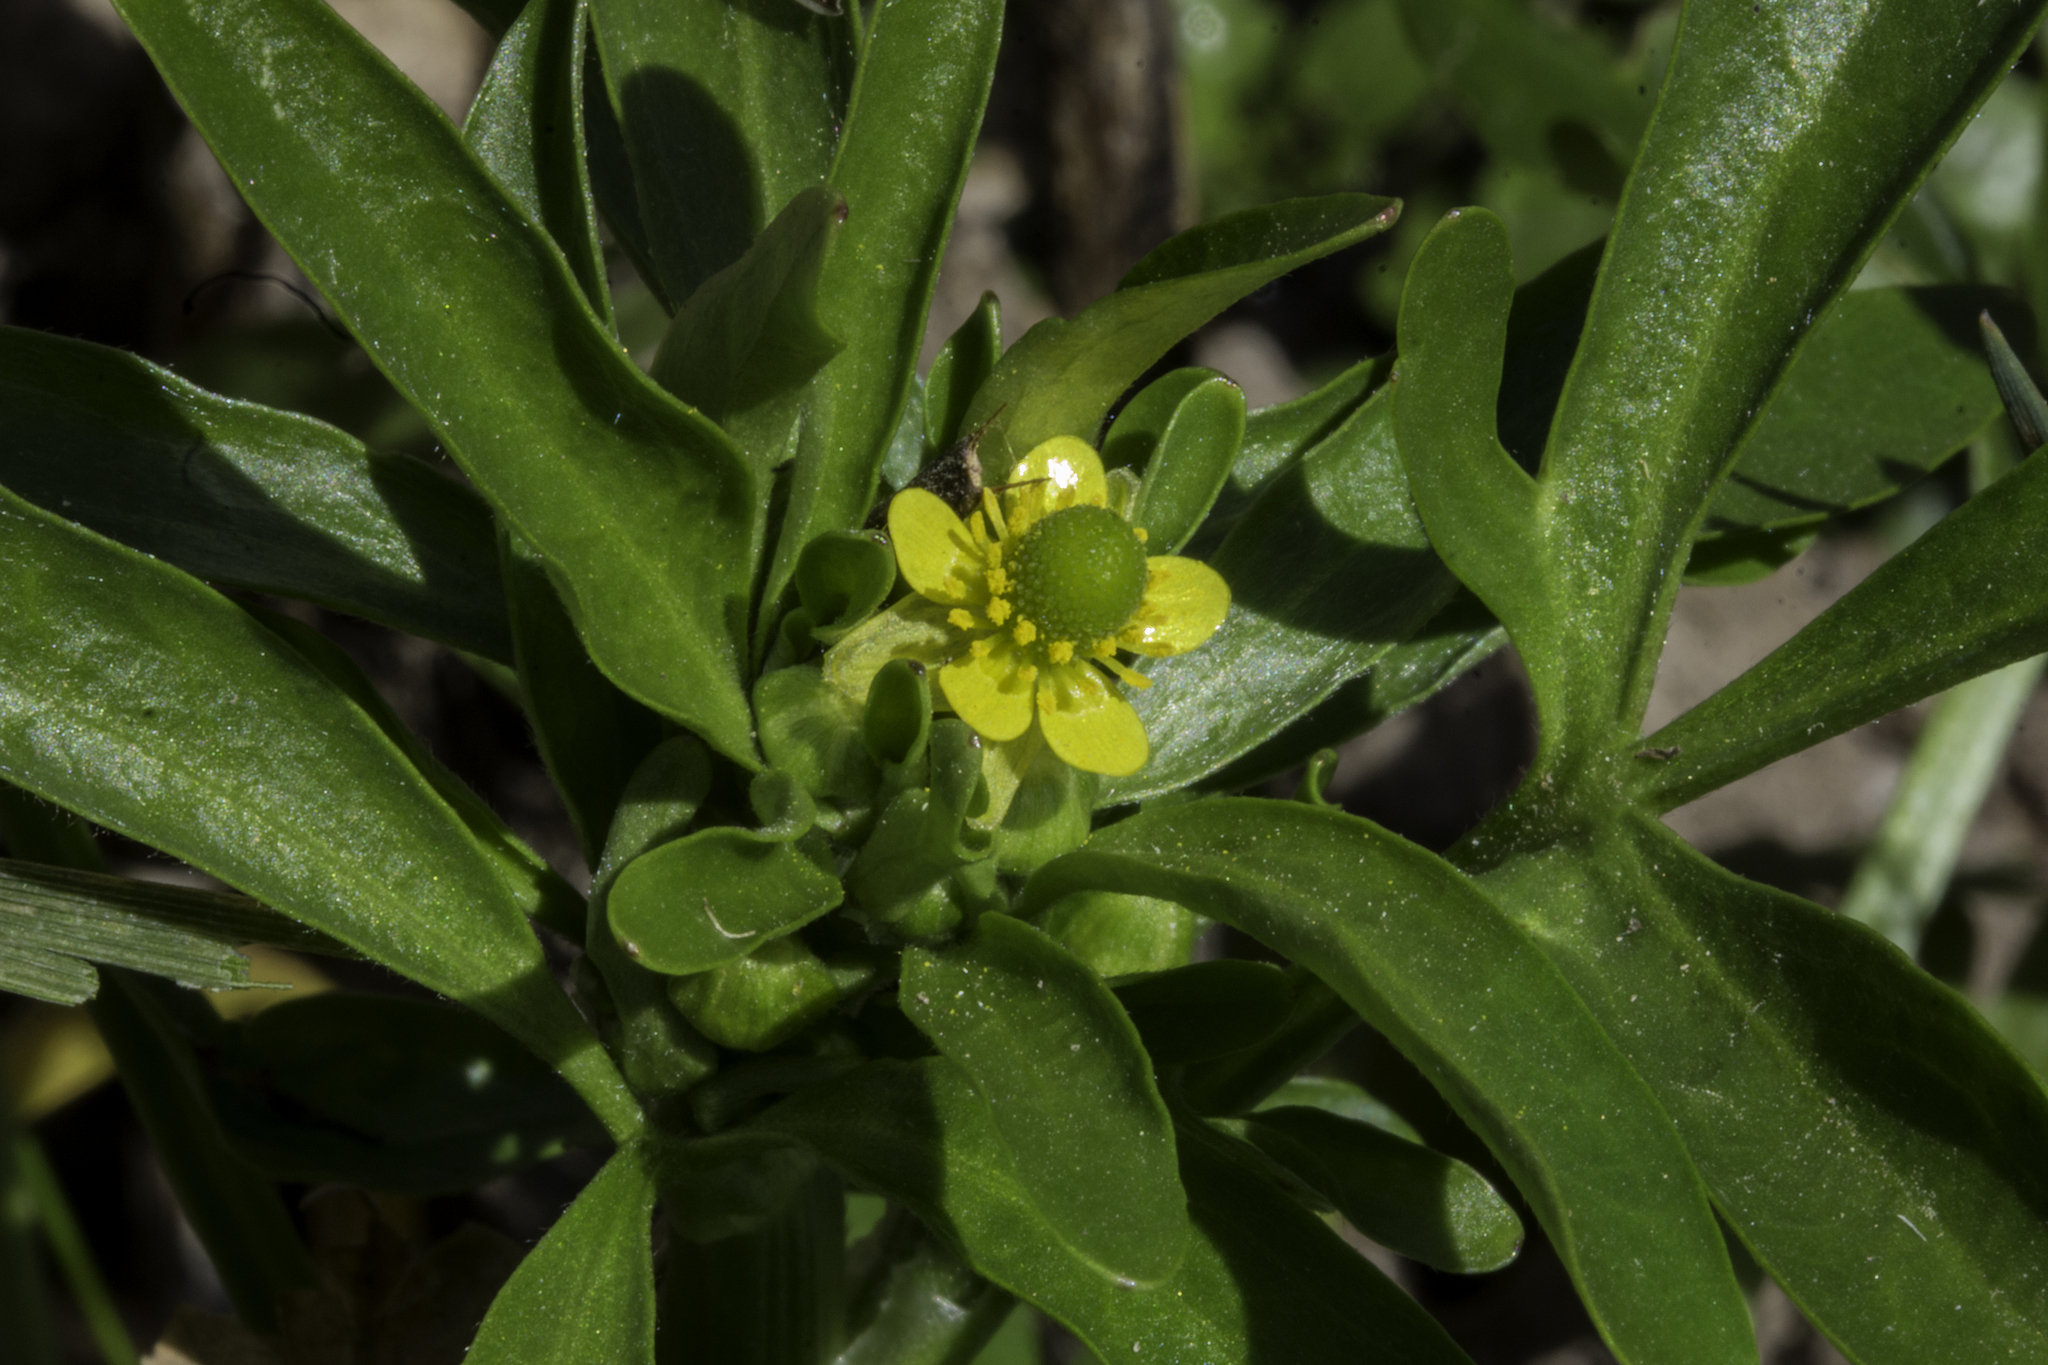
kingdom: Plantae
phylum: Tracheophyta
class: Magnoliopsida
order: Ranunculales
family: Ranunculaceae
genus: Ranunculus
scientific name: Ranunculus sceleratus
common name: Celery-leaved buttercup
